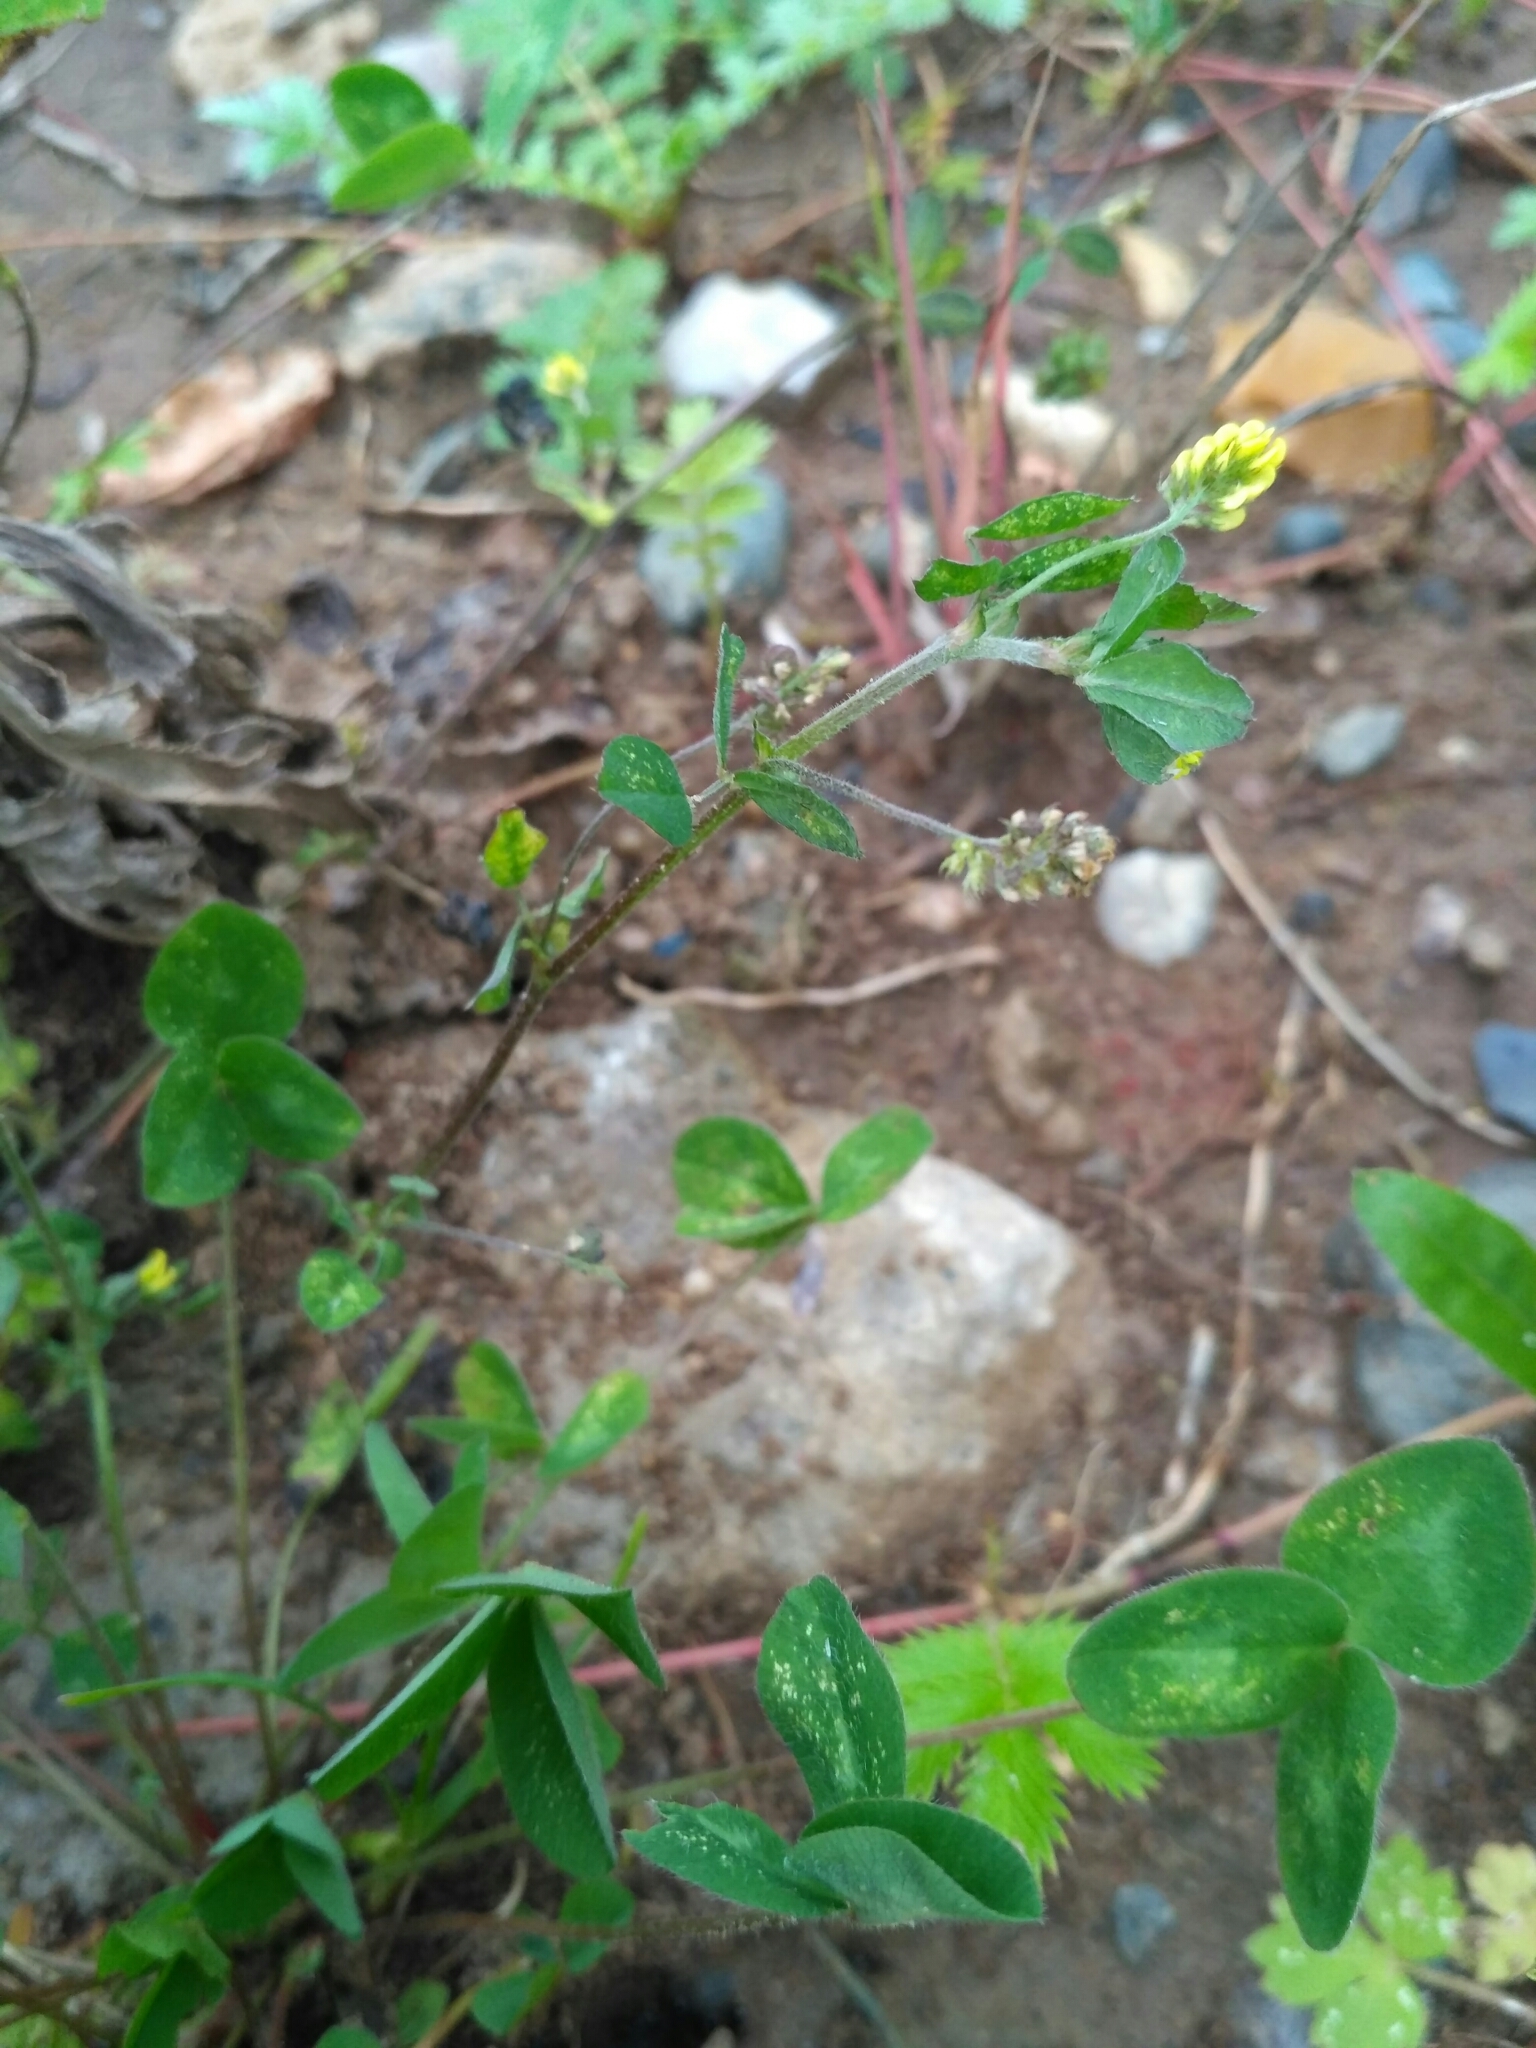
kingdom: Plantae
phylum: Tracheophyta
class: Magnoliopsida
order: Fabales
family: Fabaceae
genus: Medicago
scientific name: Medicago lupulina
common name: Black medick
